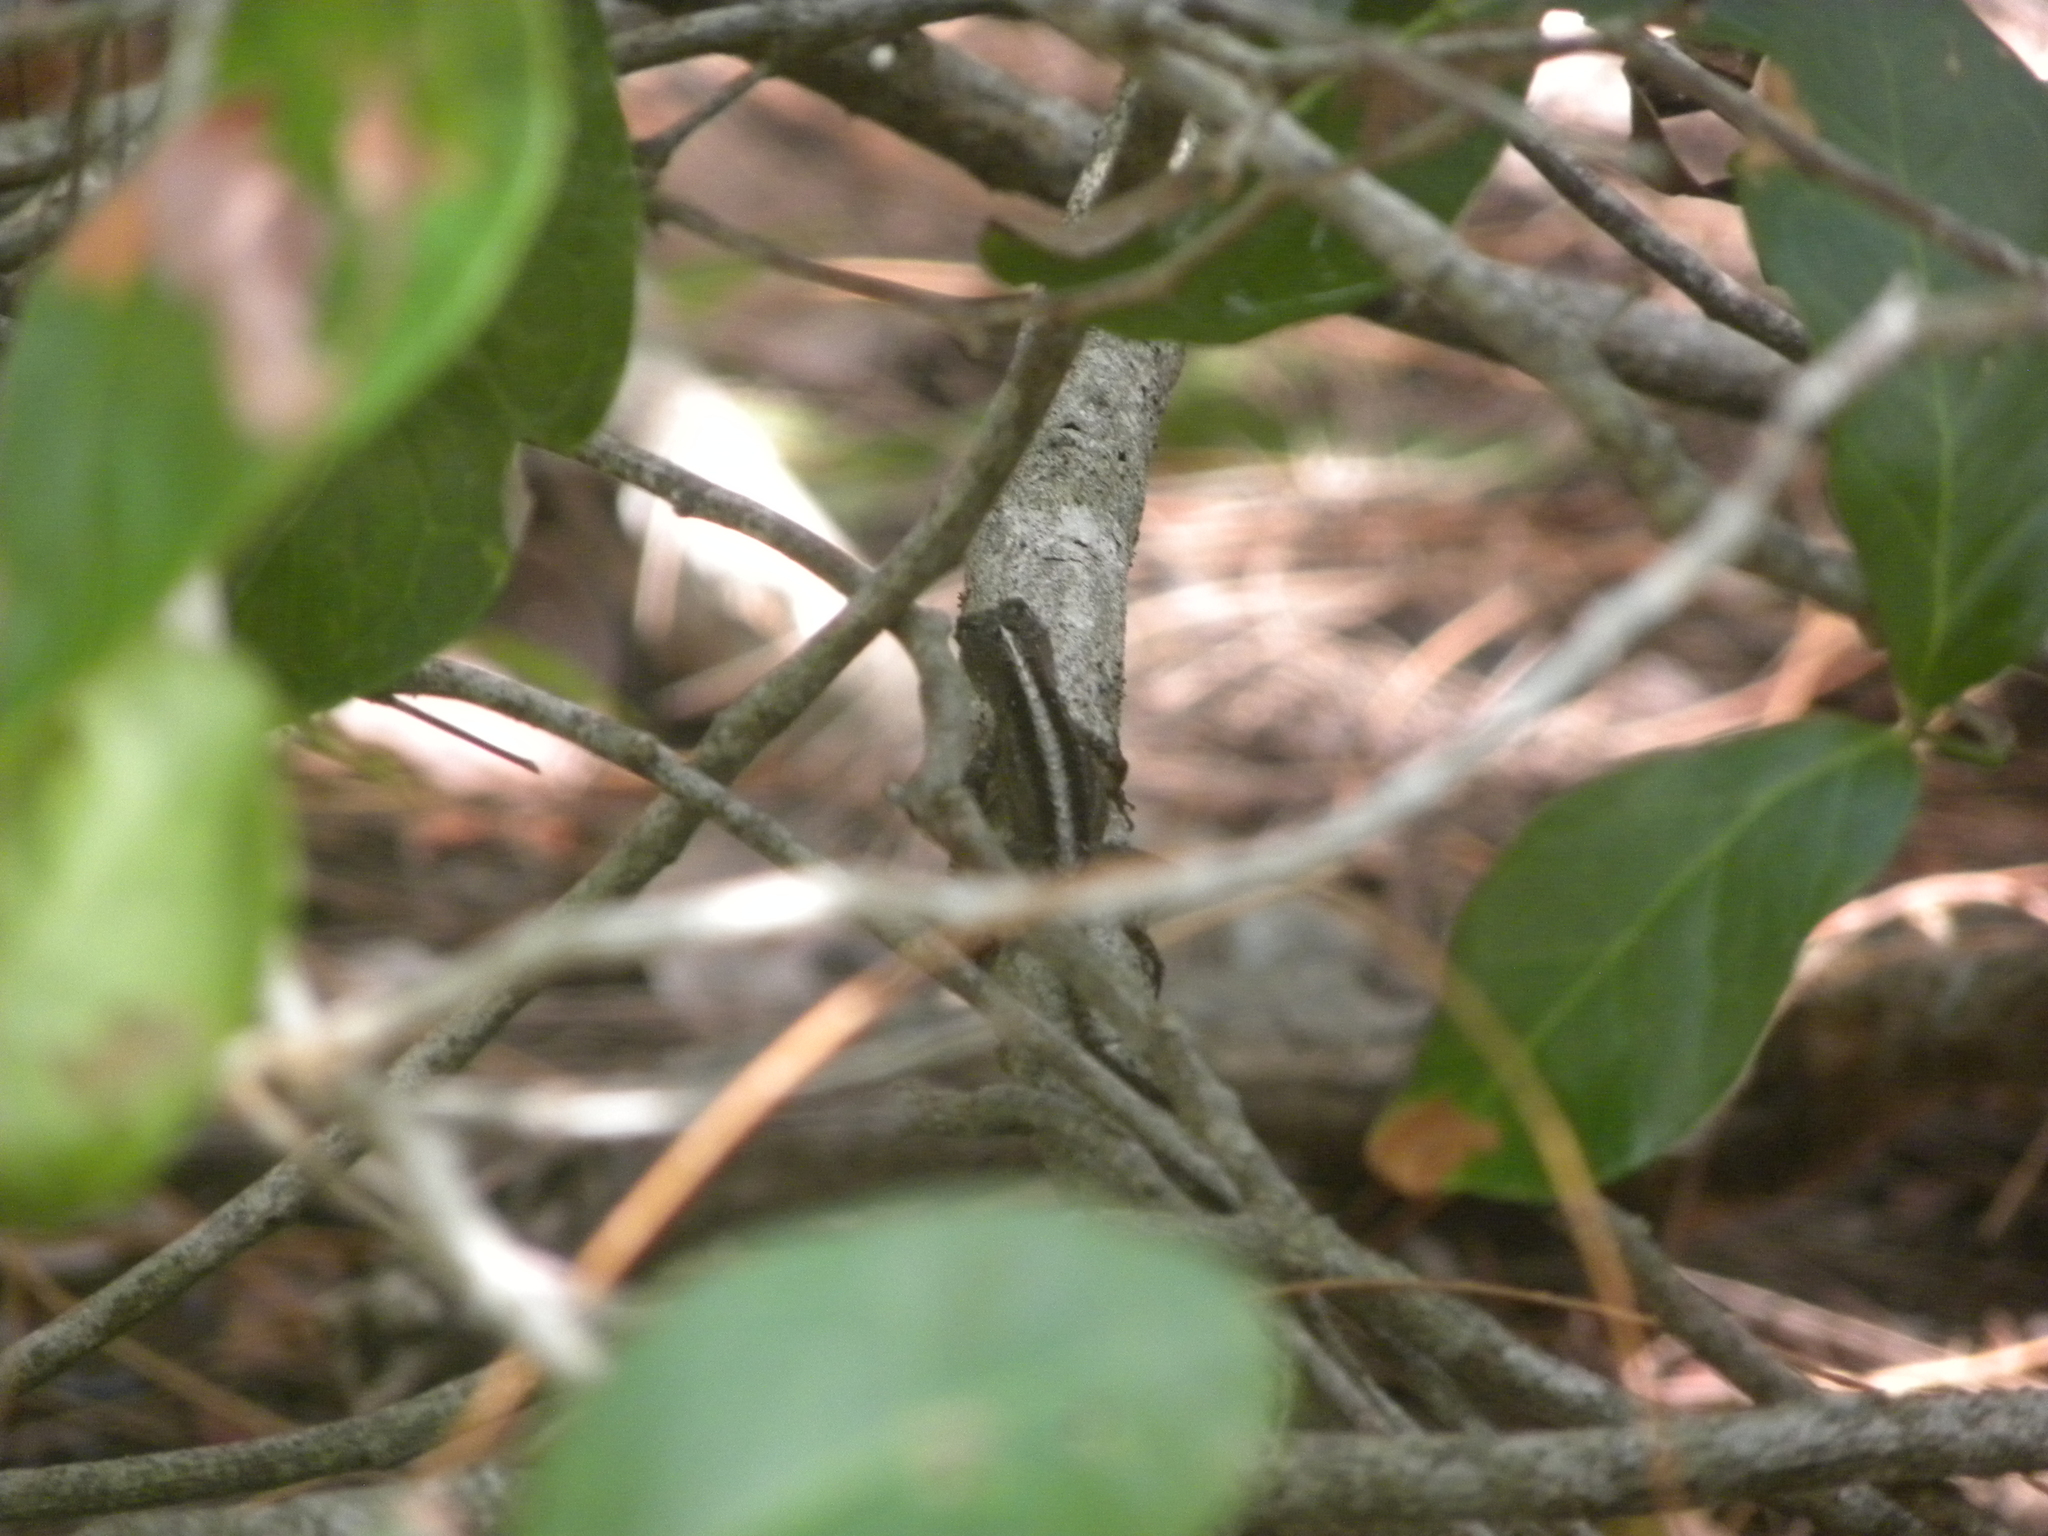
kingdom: Animalia
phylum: Chordata
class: Squamata
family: Dactyloidae
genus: Anolis
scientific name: Anolis sagrei
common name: Brown anole
